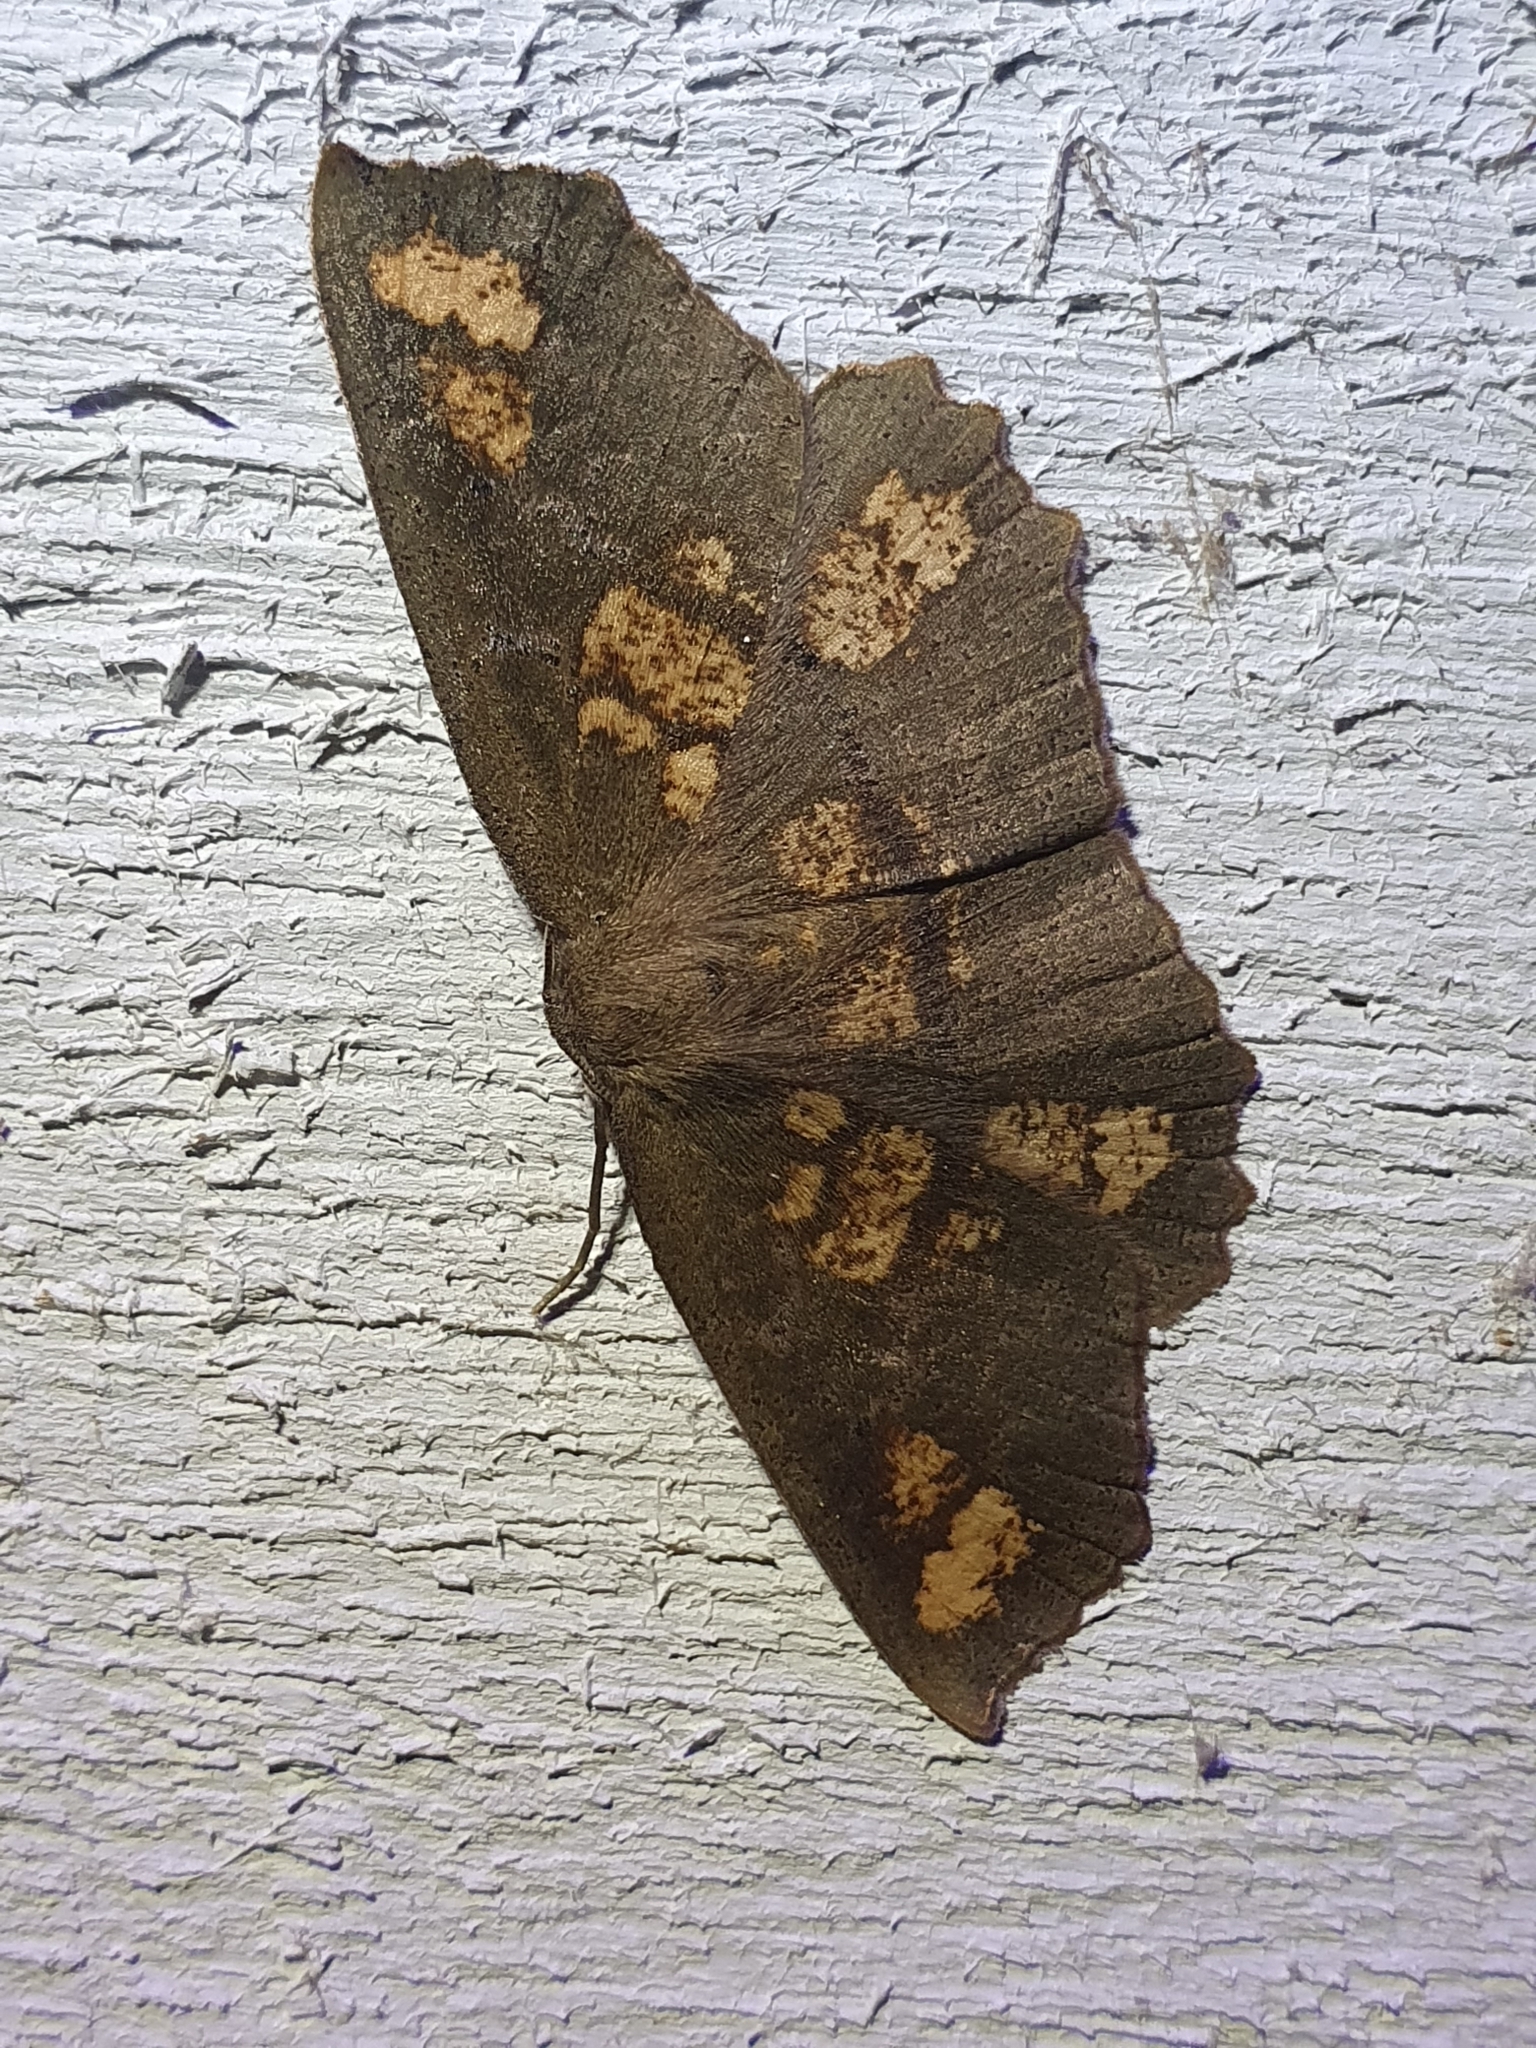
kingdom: Animalia
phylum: Arthropoda
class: Insecta
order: Lepidoptera
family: Geometridae
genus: Xyridacma
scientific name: Xyridacma ustaria
